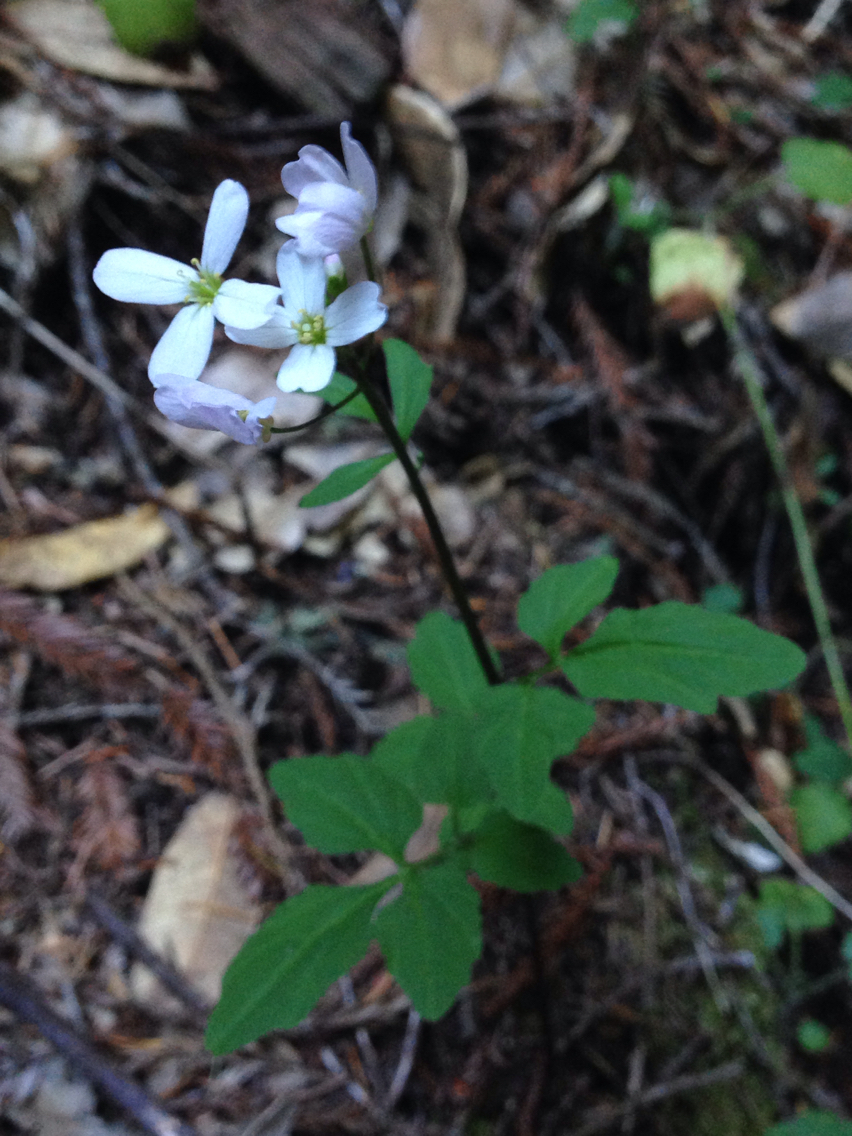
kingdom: Plantae
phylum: Tracheophyta
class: Magnoliopsida
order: Brassicales
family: Brassicaceae
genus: Cardamine
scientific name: Cardamine californica
